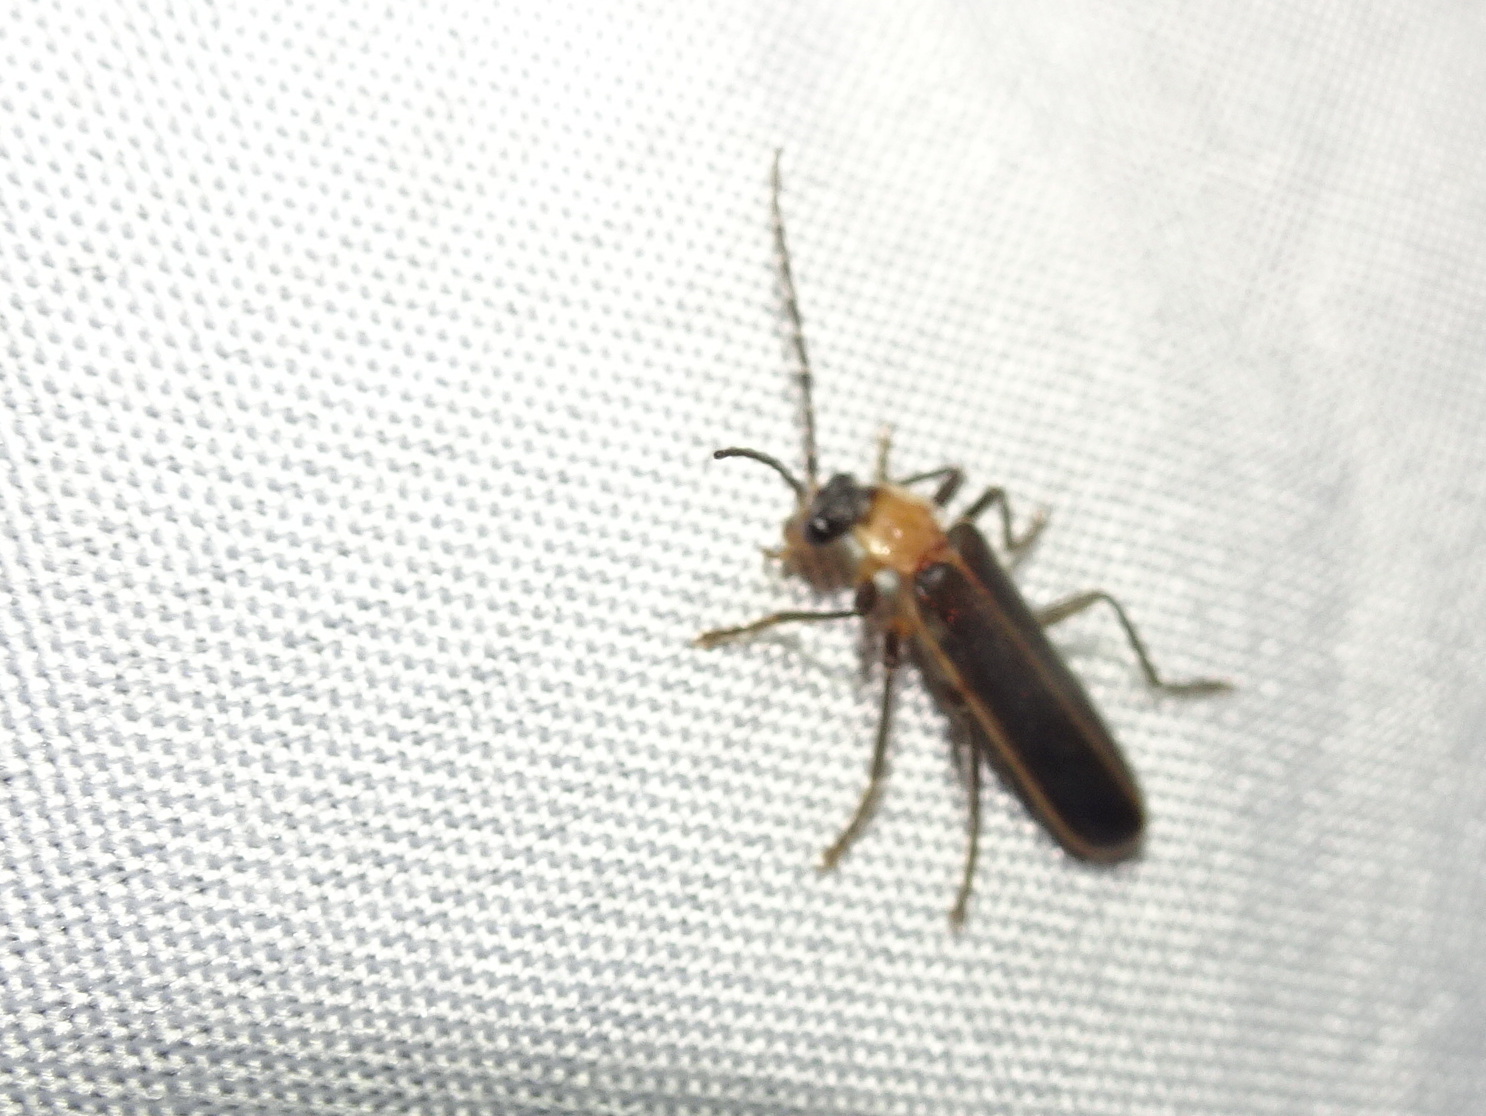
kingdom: Animalia
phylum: Arthropoda
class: Insecta
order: Coleoptera
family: Cantharidae
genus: Podabrus
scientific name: Podabrus flavicollis
